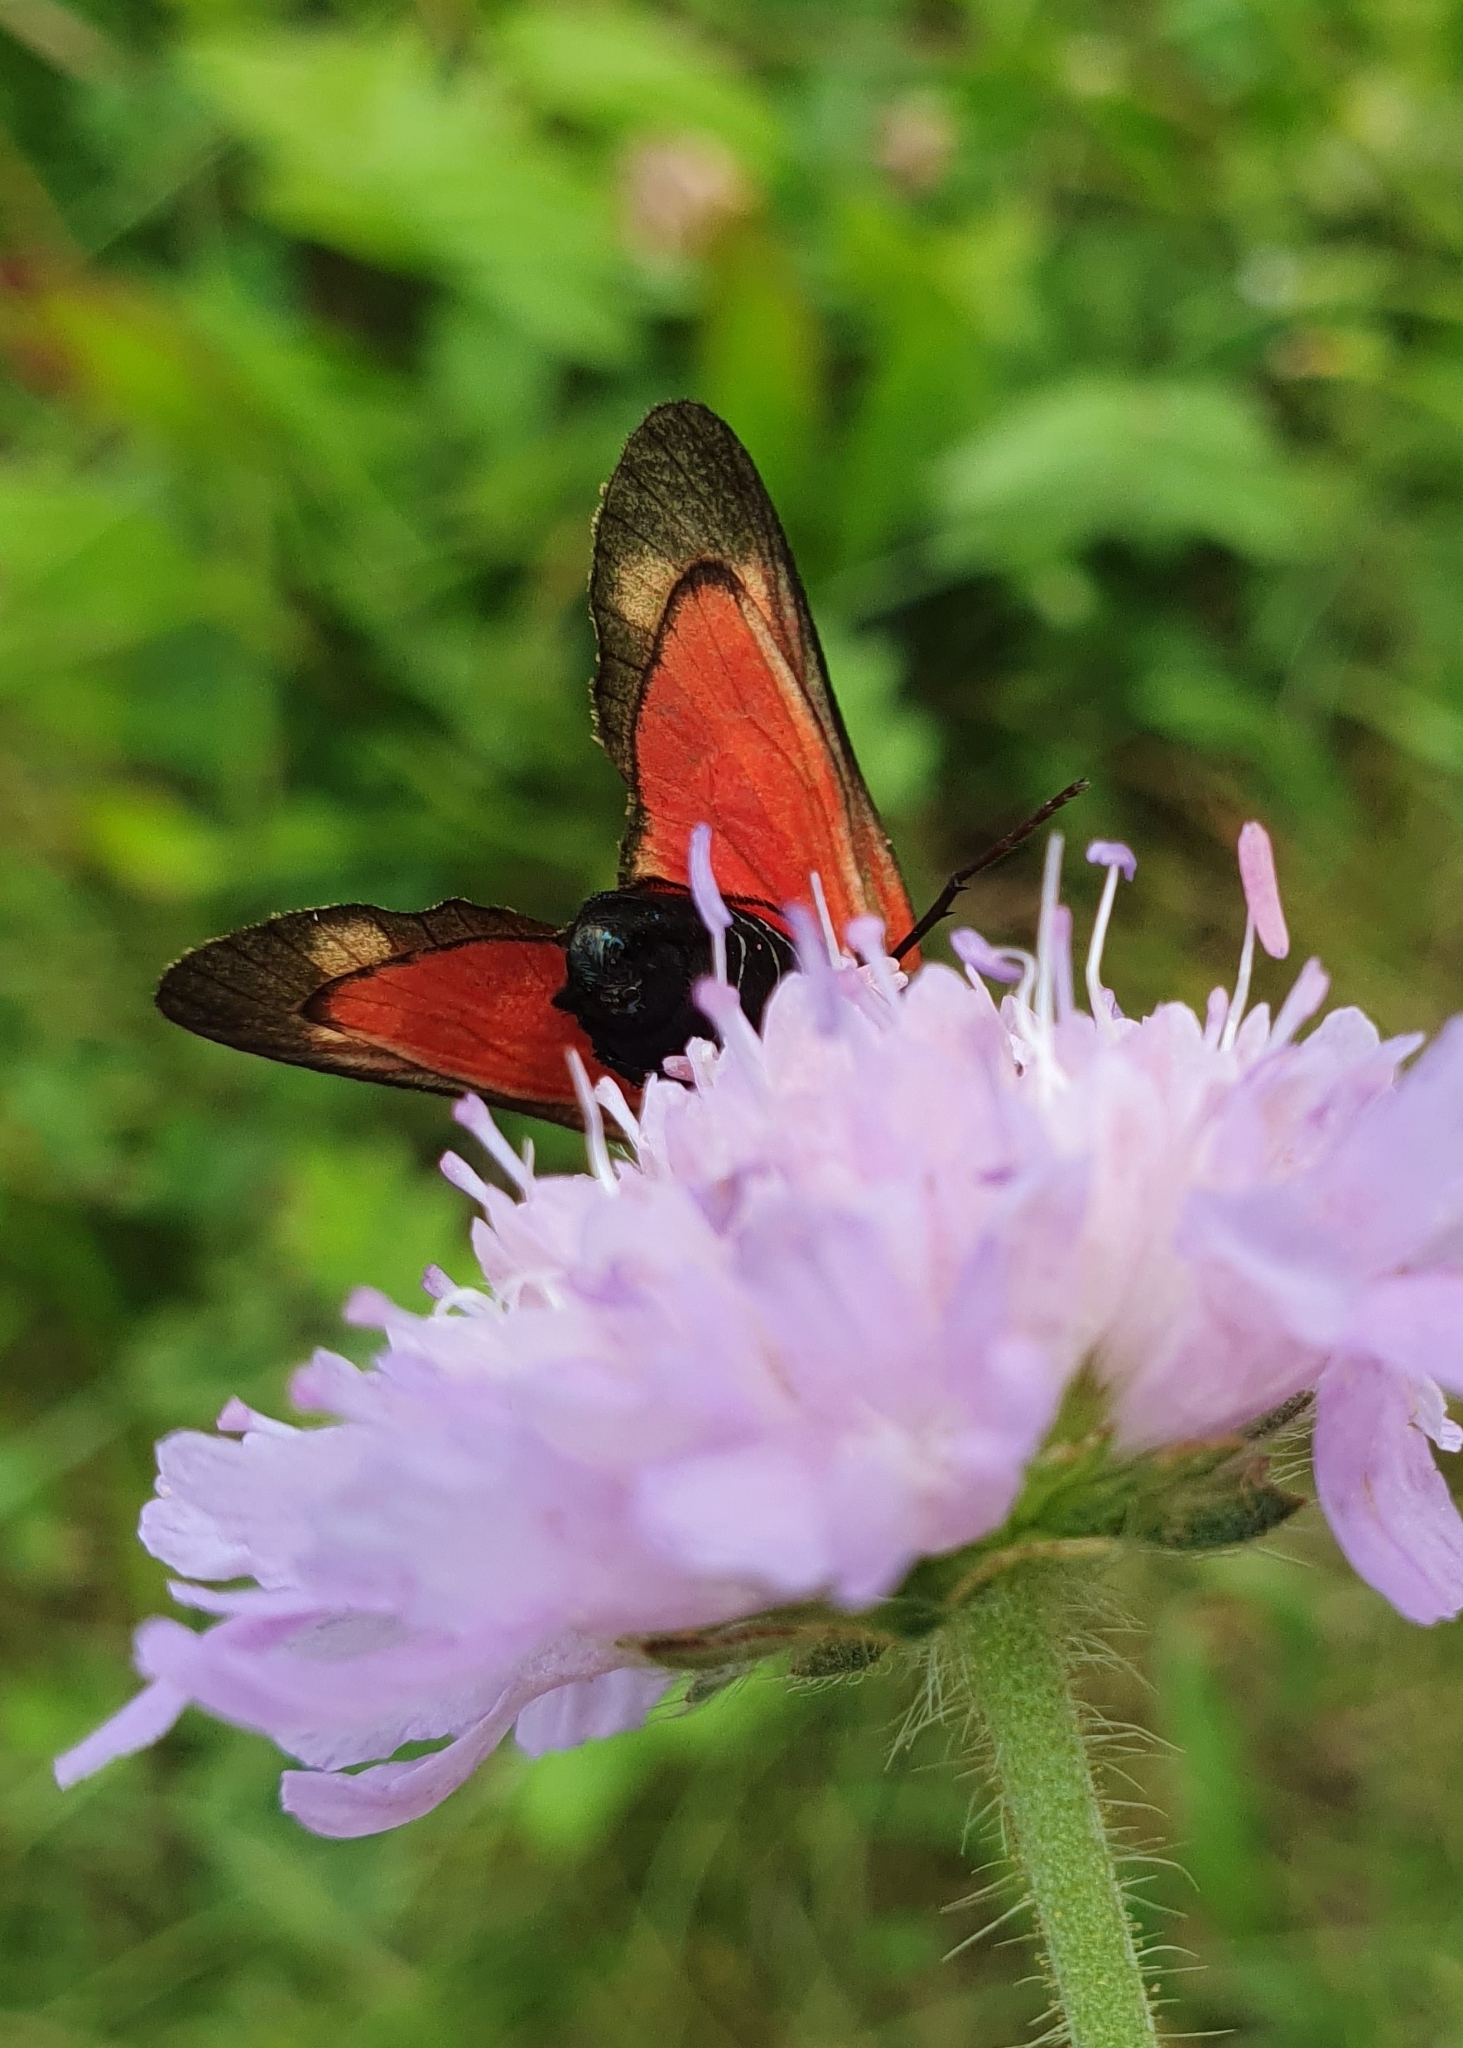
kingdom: Animalia
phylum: Arthropoda
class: Insecta
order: Lepidoptera
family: Zygaenidae
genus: Zygaena
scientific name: Zygaena filipendulae
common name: Six-spot burnet
